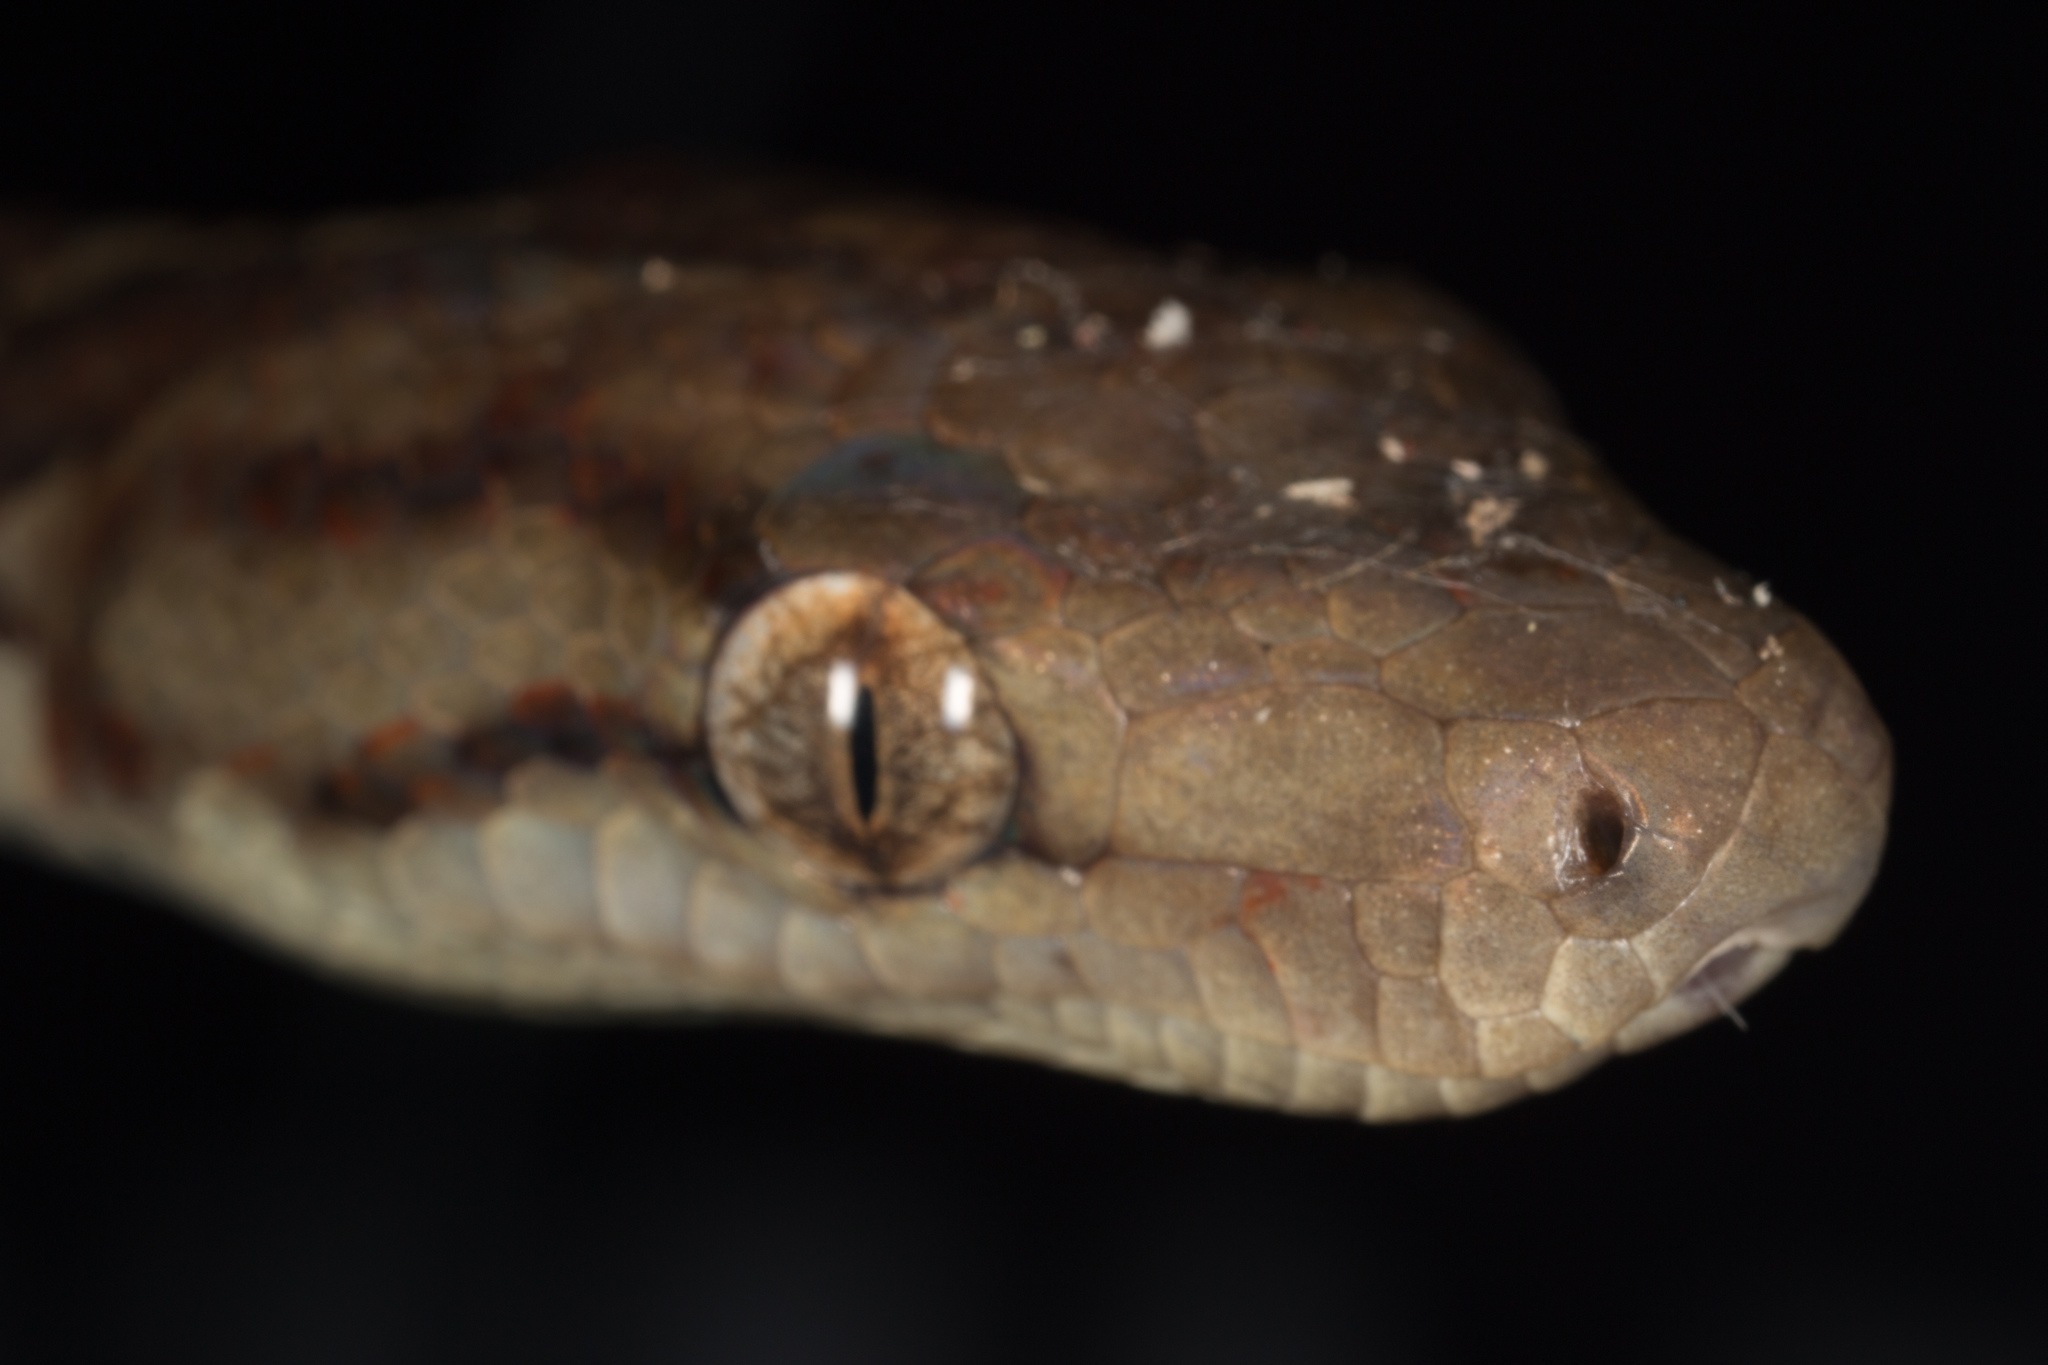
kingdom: Animalia
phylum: Chordata
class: Squamata
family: Boidae
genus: Chilabothrus
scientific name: Chilabothrus striatus
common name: Haitian boa
